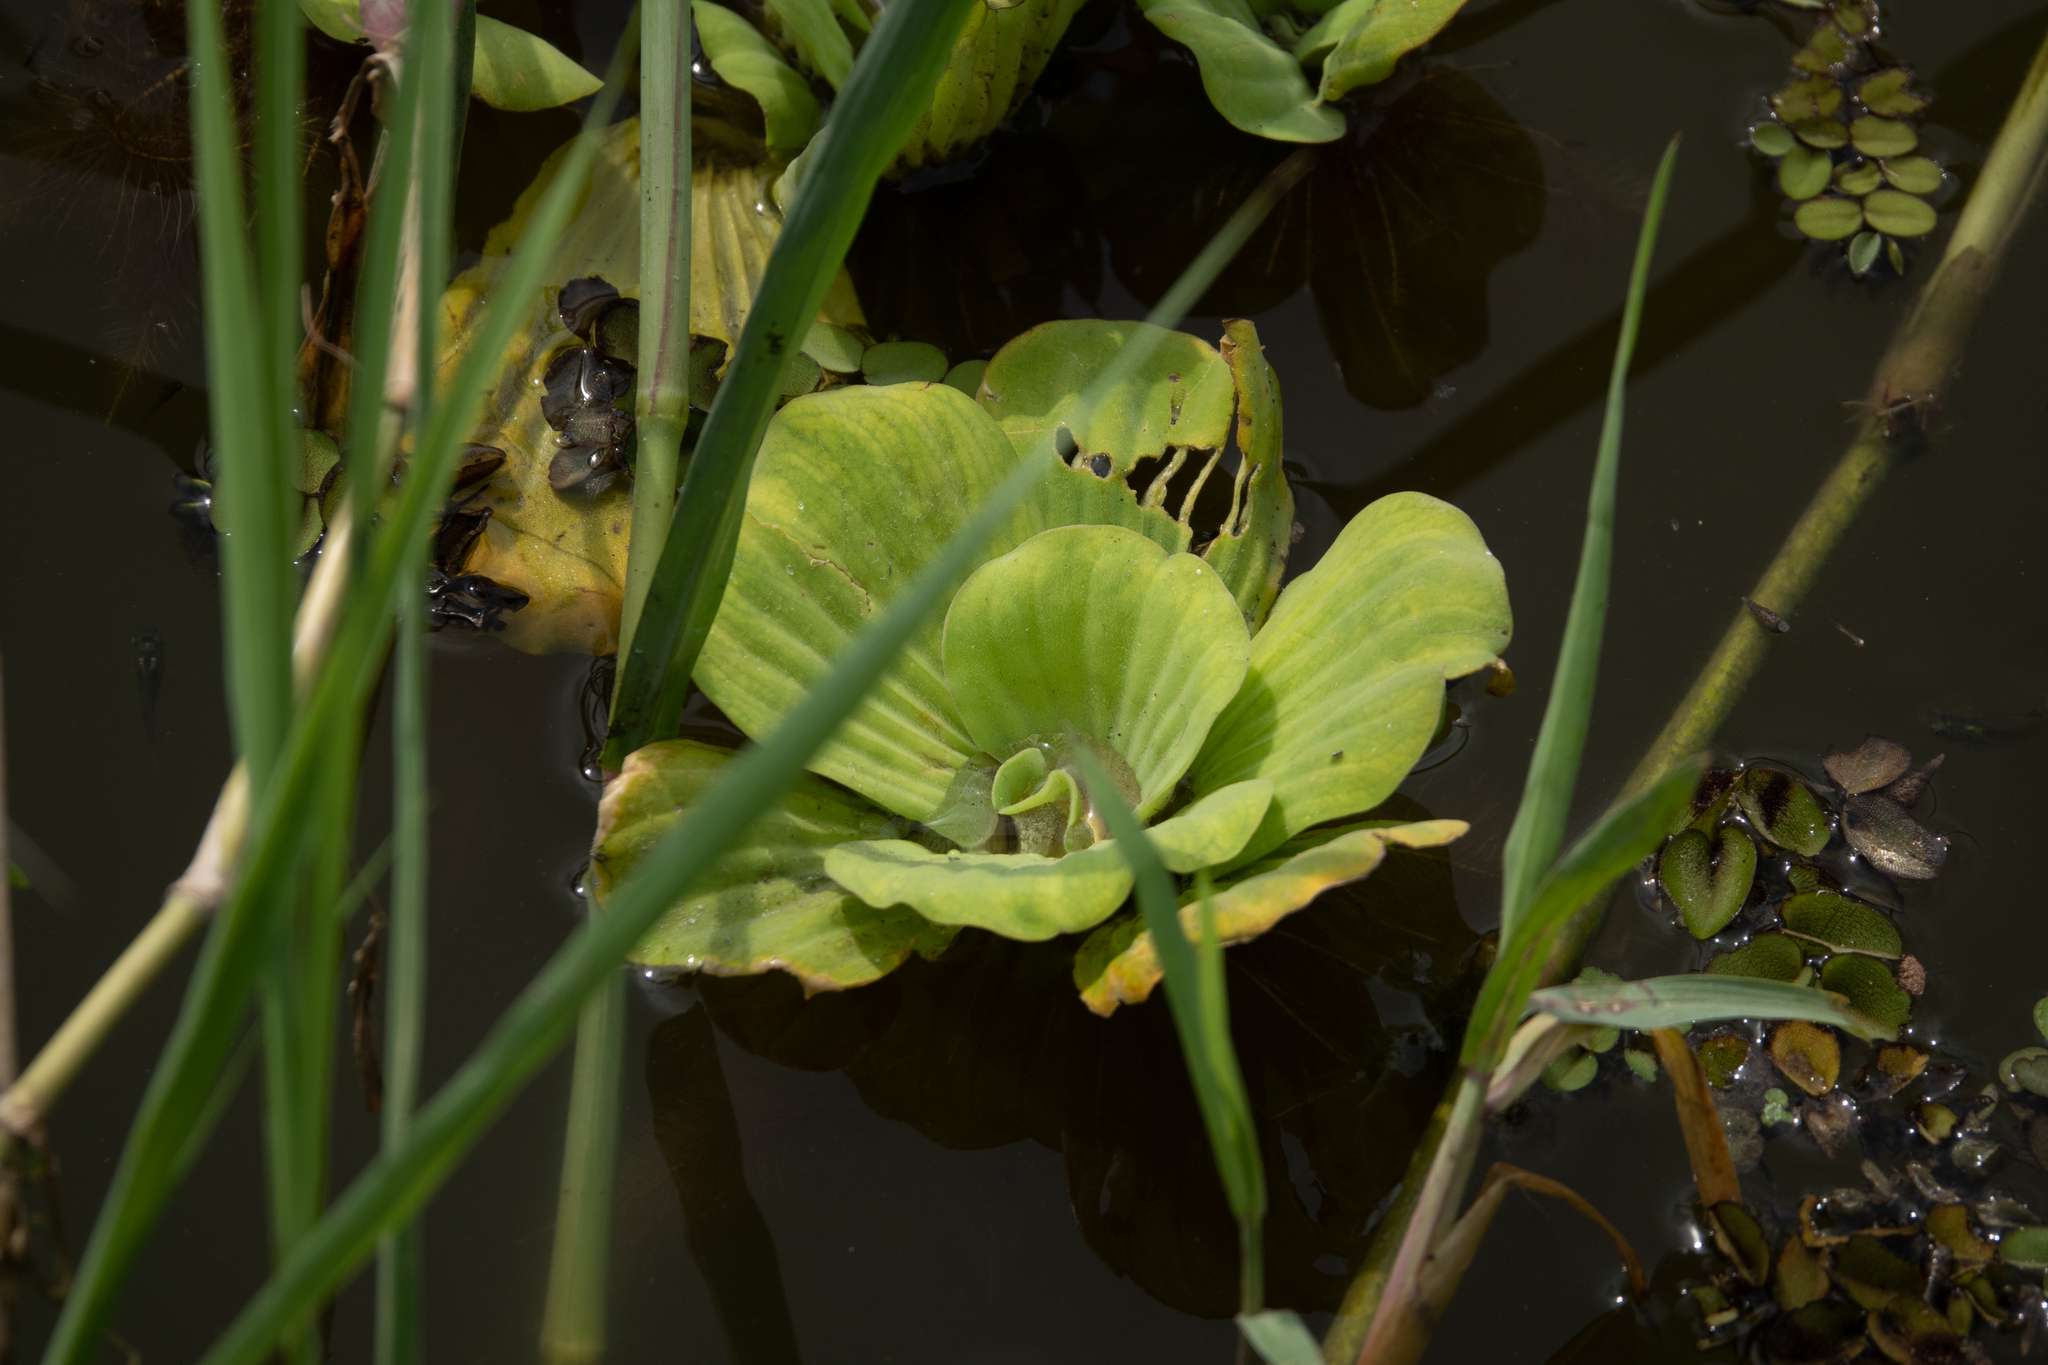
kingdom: Plantae
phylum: Tracheophyta
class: Liliopsida
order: Alismatales
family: Araceae
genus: Pistia
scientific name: Pistia stratiotes
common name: Water lettuce
